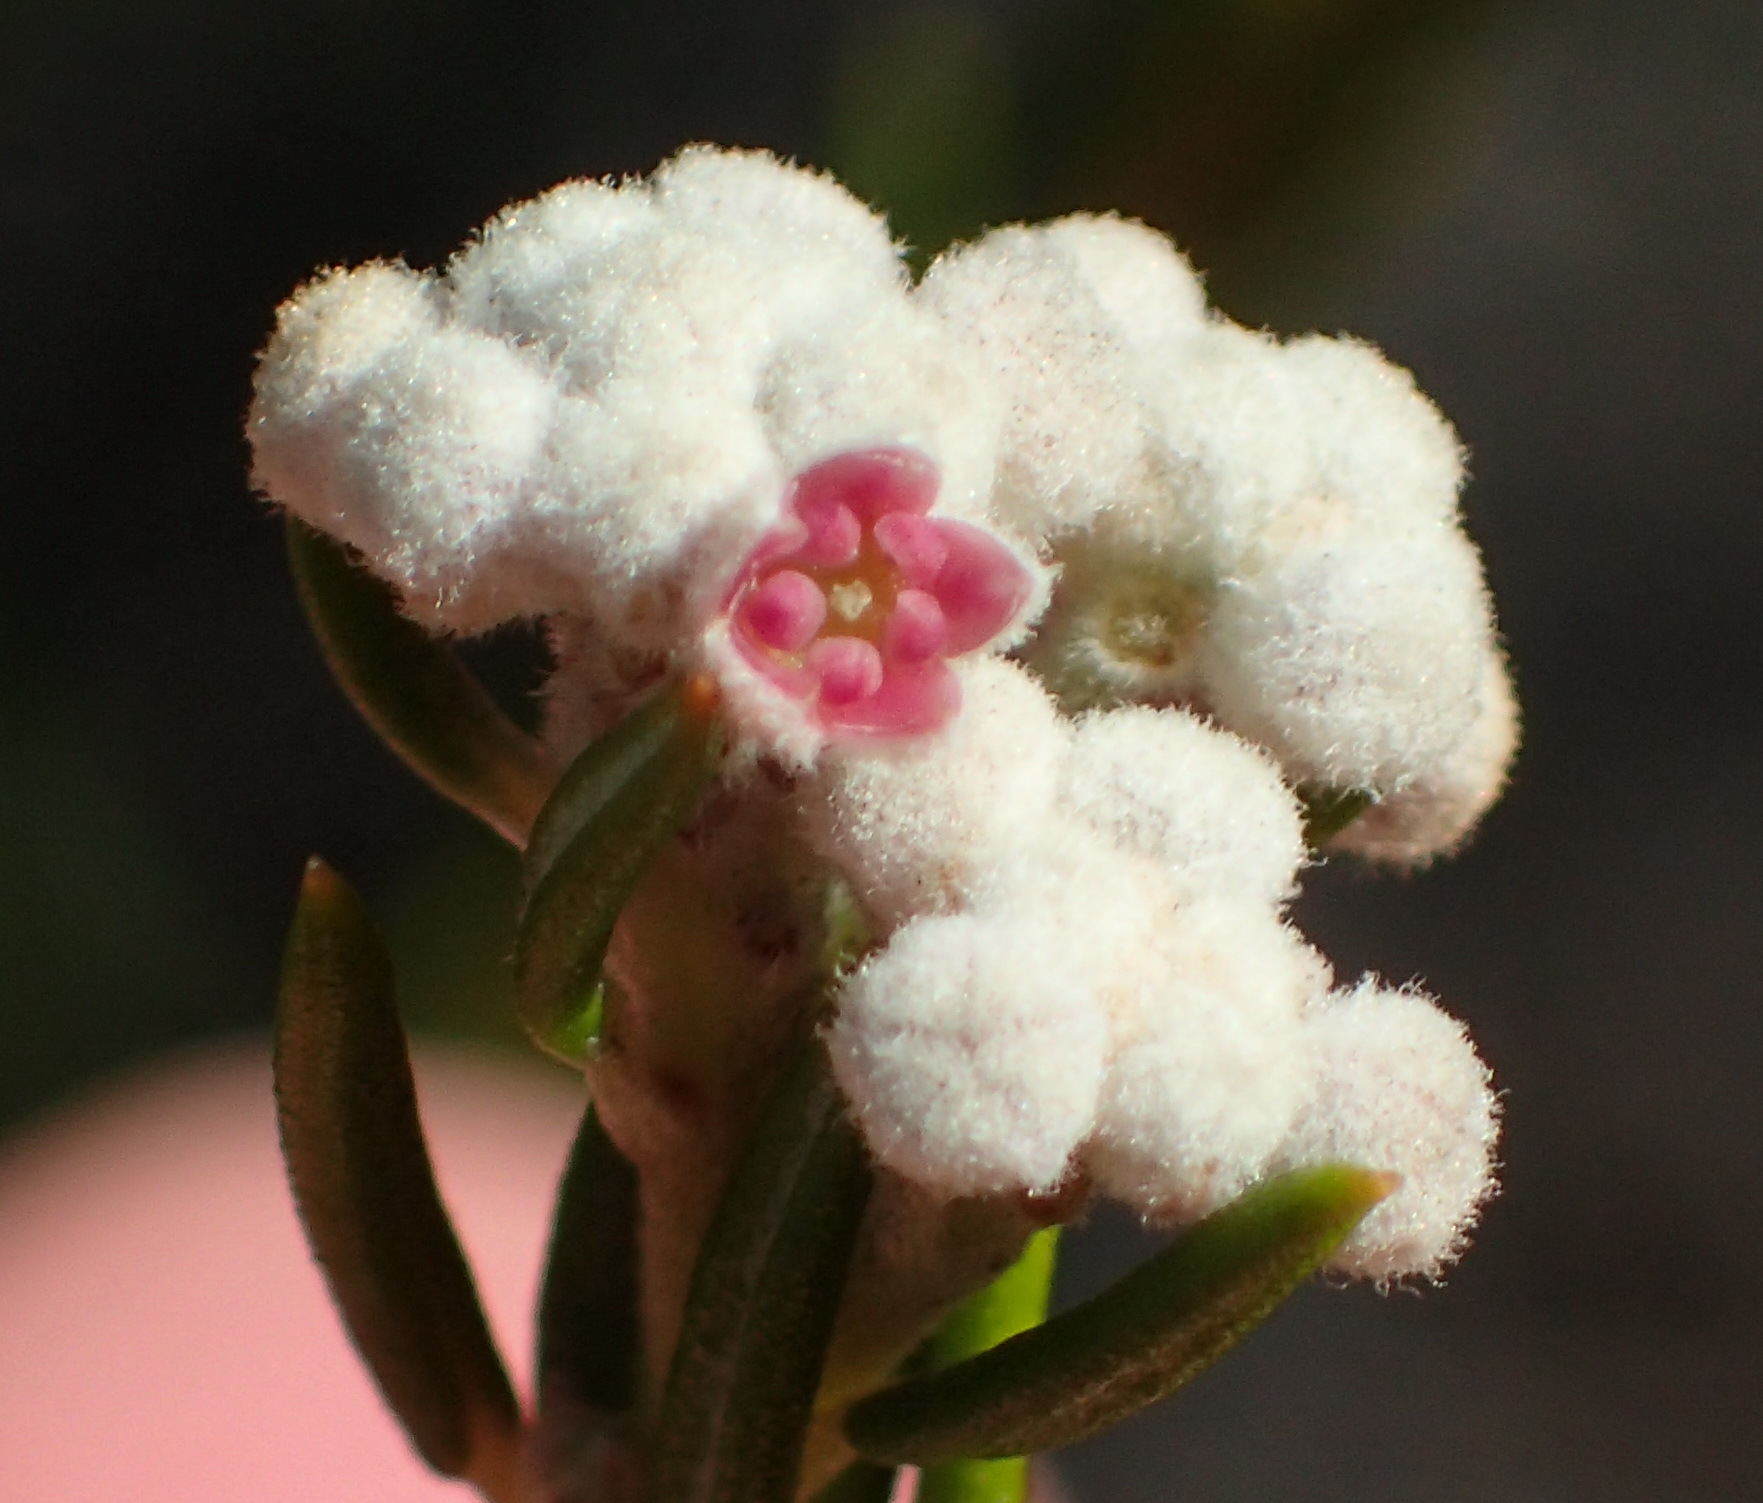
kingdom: Plantae
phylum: Tracheophyta
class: Magnoliopsida
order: Rosales
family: Rhamnaceae
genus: Phylica
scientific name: Phylica cryptandroides
